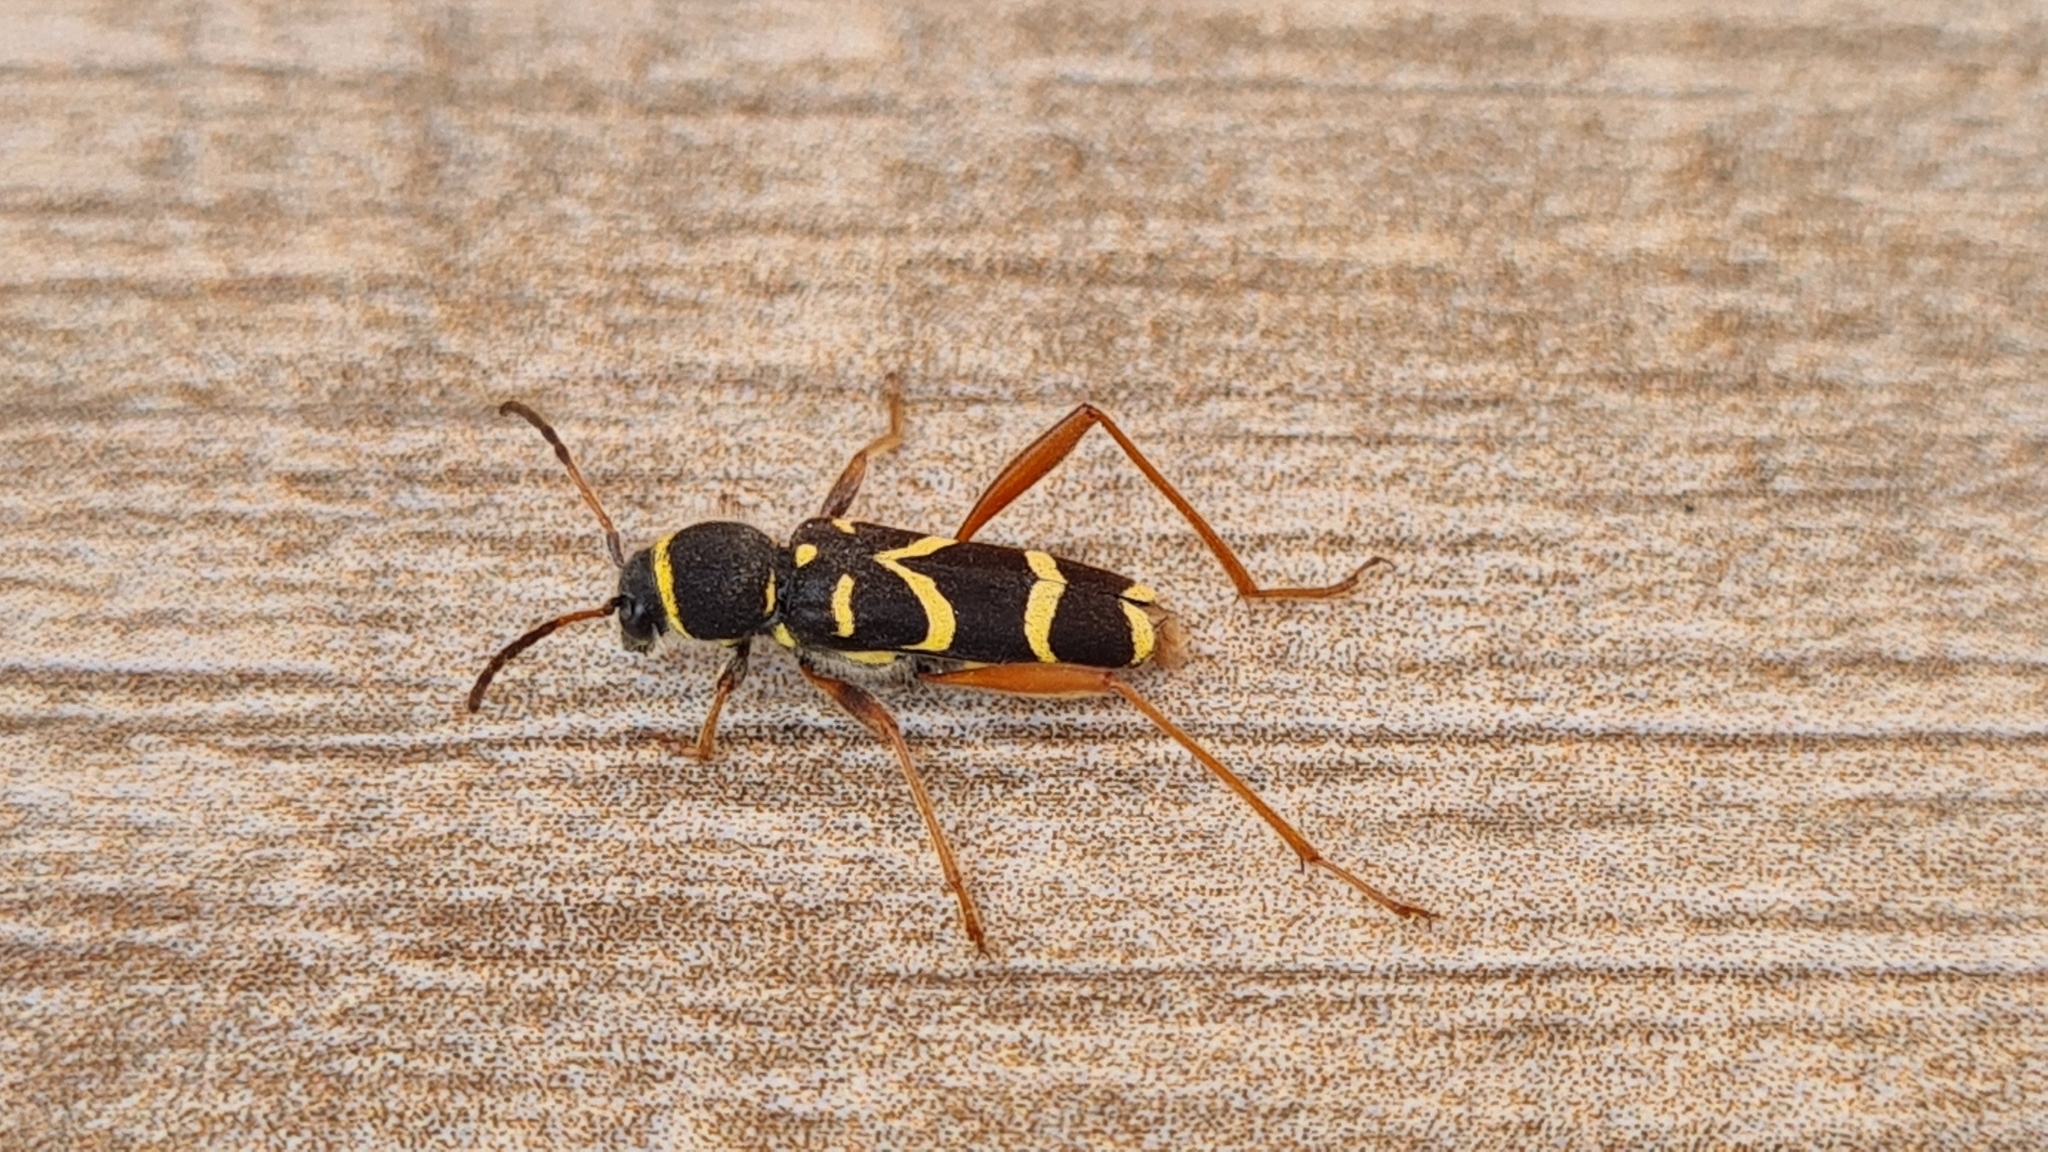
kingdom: Animalia
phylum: Arthropoda
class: Insecta
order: Coleoptera
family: Cerambycidae
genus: Clytus
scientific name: Clytus arietis
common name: Wasp beetle
